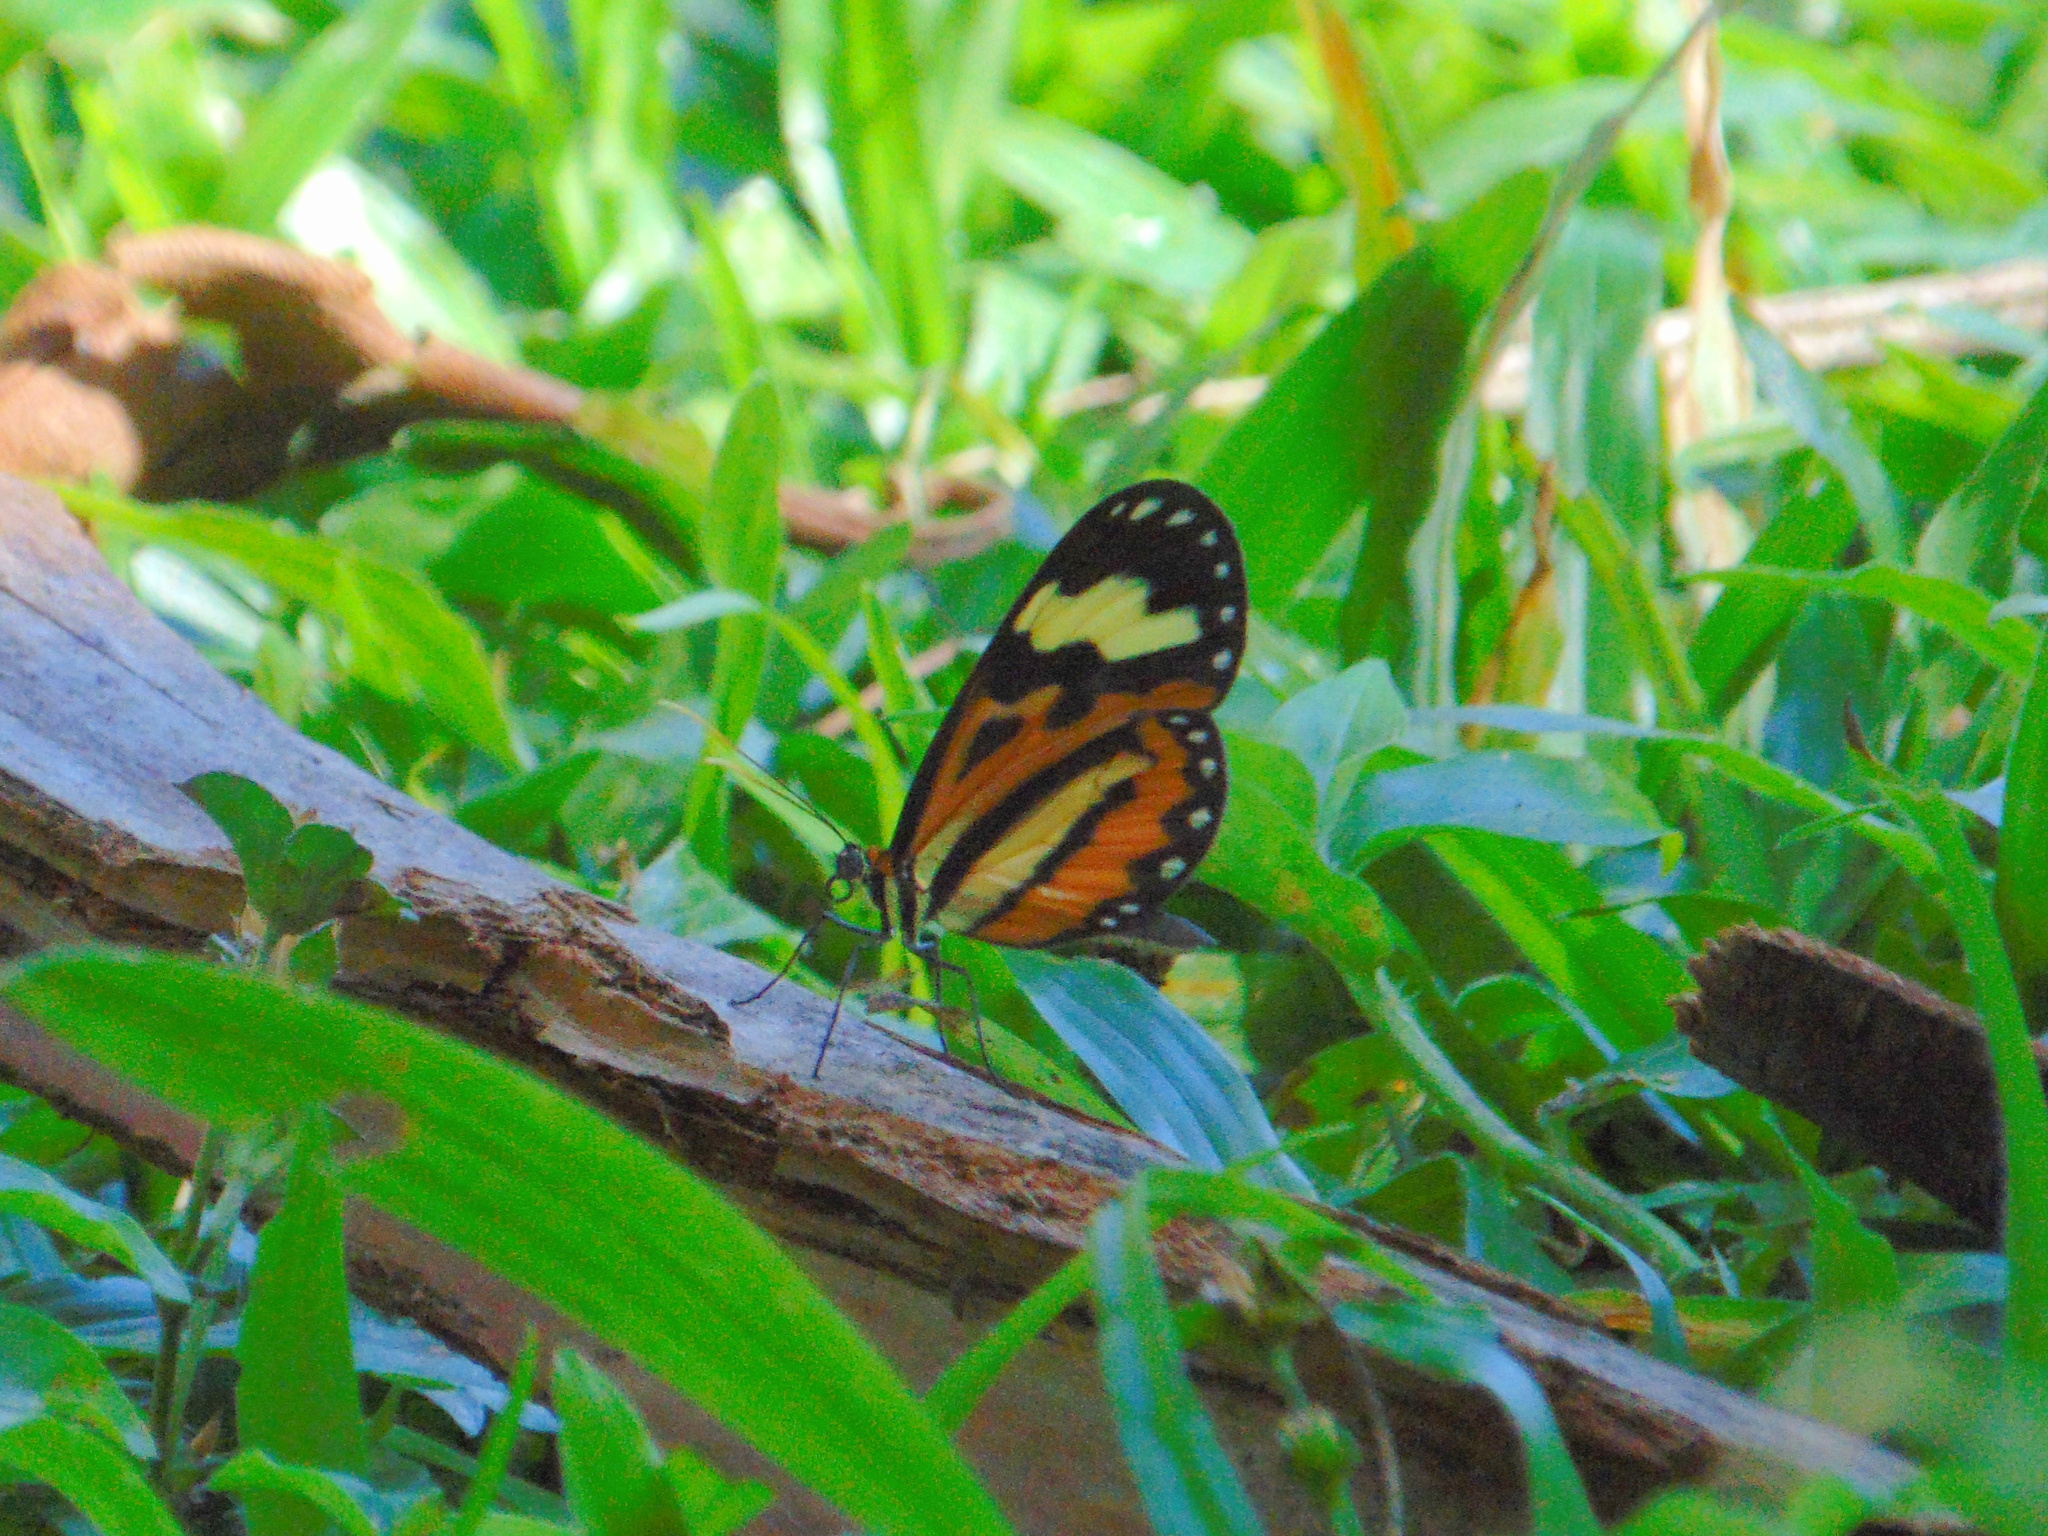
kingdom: Animalia
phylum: Arthropoda
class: Insecta
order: Lepidoptera
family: Nymphalidae
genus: Hypothyris
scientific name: Hypothyris euclea
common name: Euclea tigerwing
